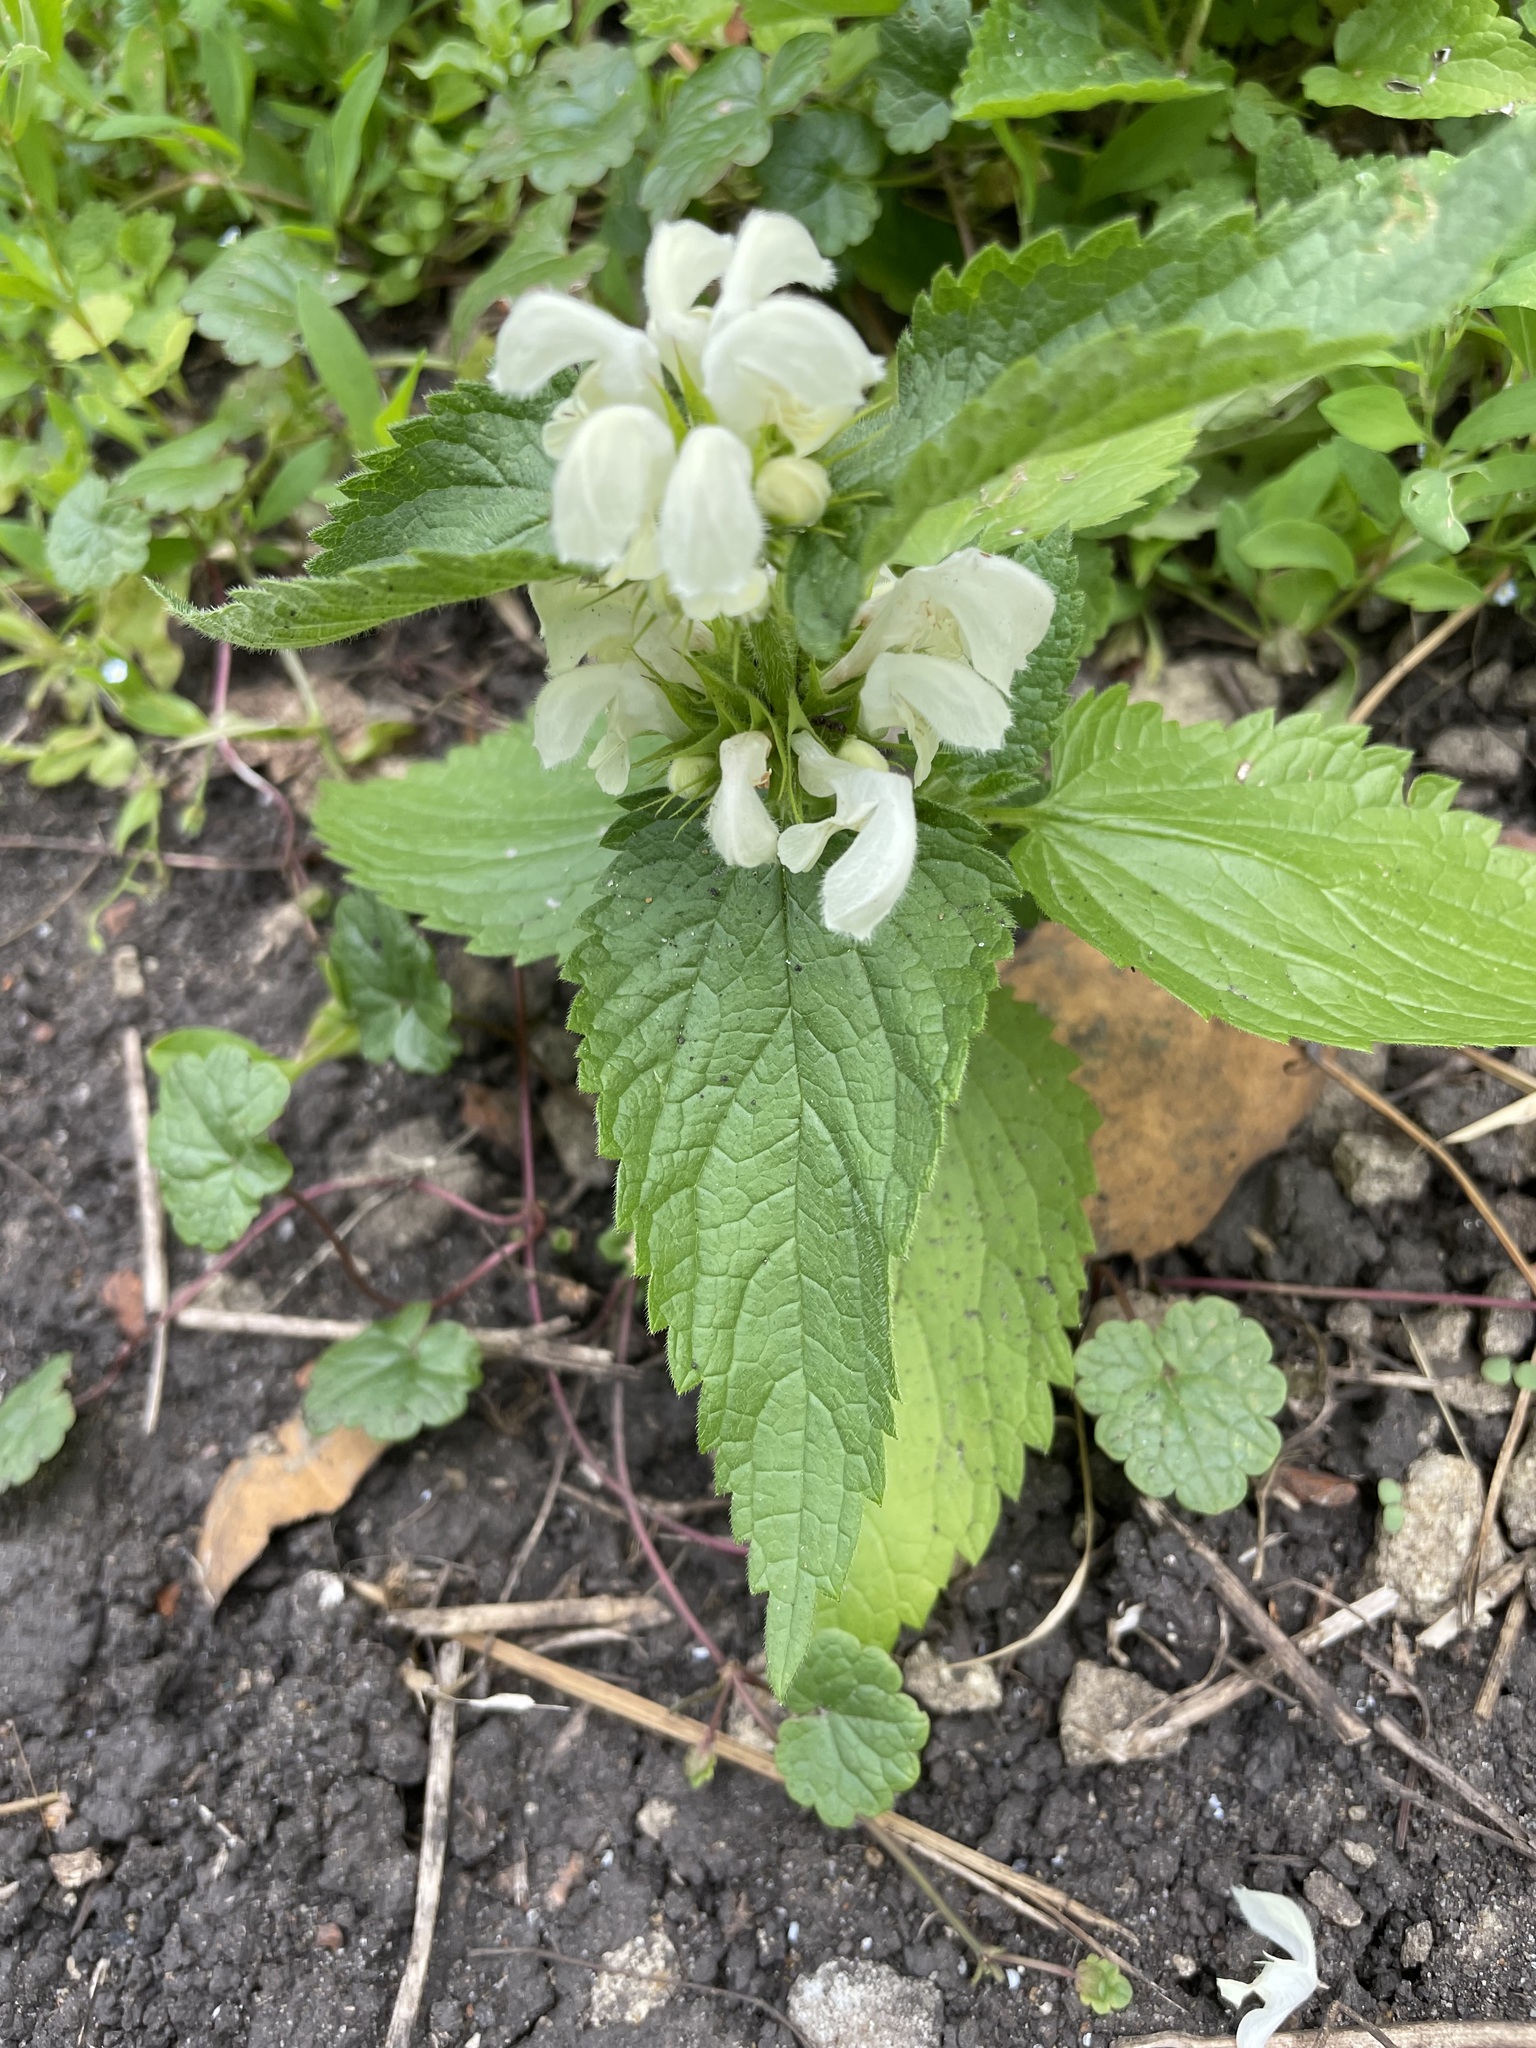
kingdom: Plantae
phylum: Tracheophyta
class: Magnoliopsida
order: Lamiales
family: Lamiaceae
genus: Lamium
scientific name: Lamium album
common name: White dead-nettle
